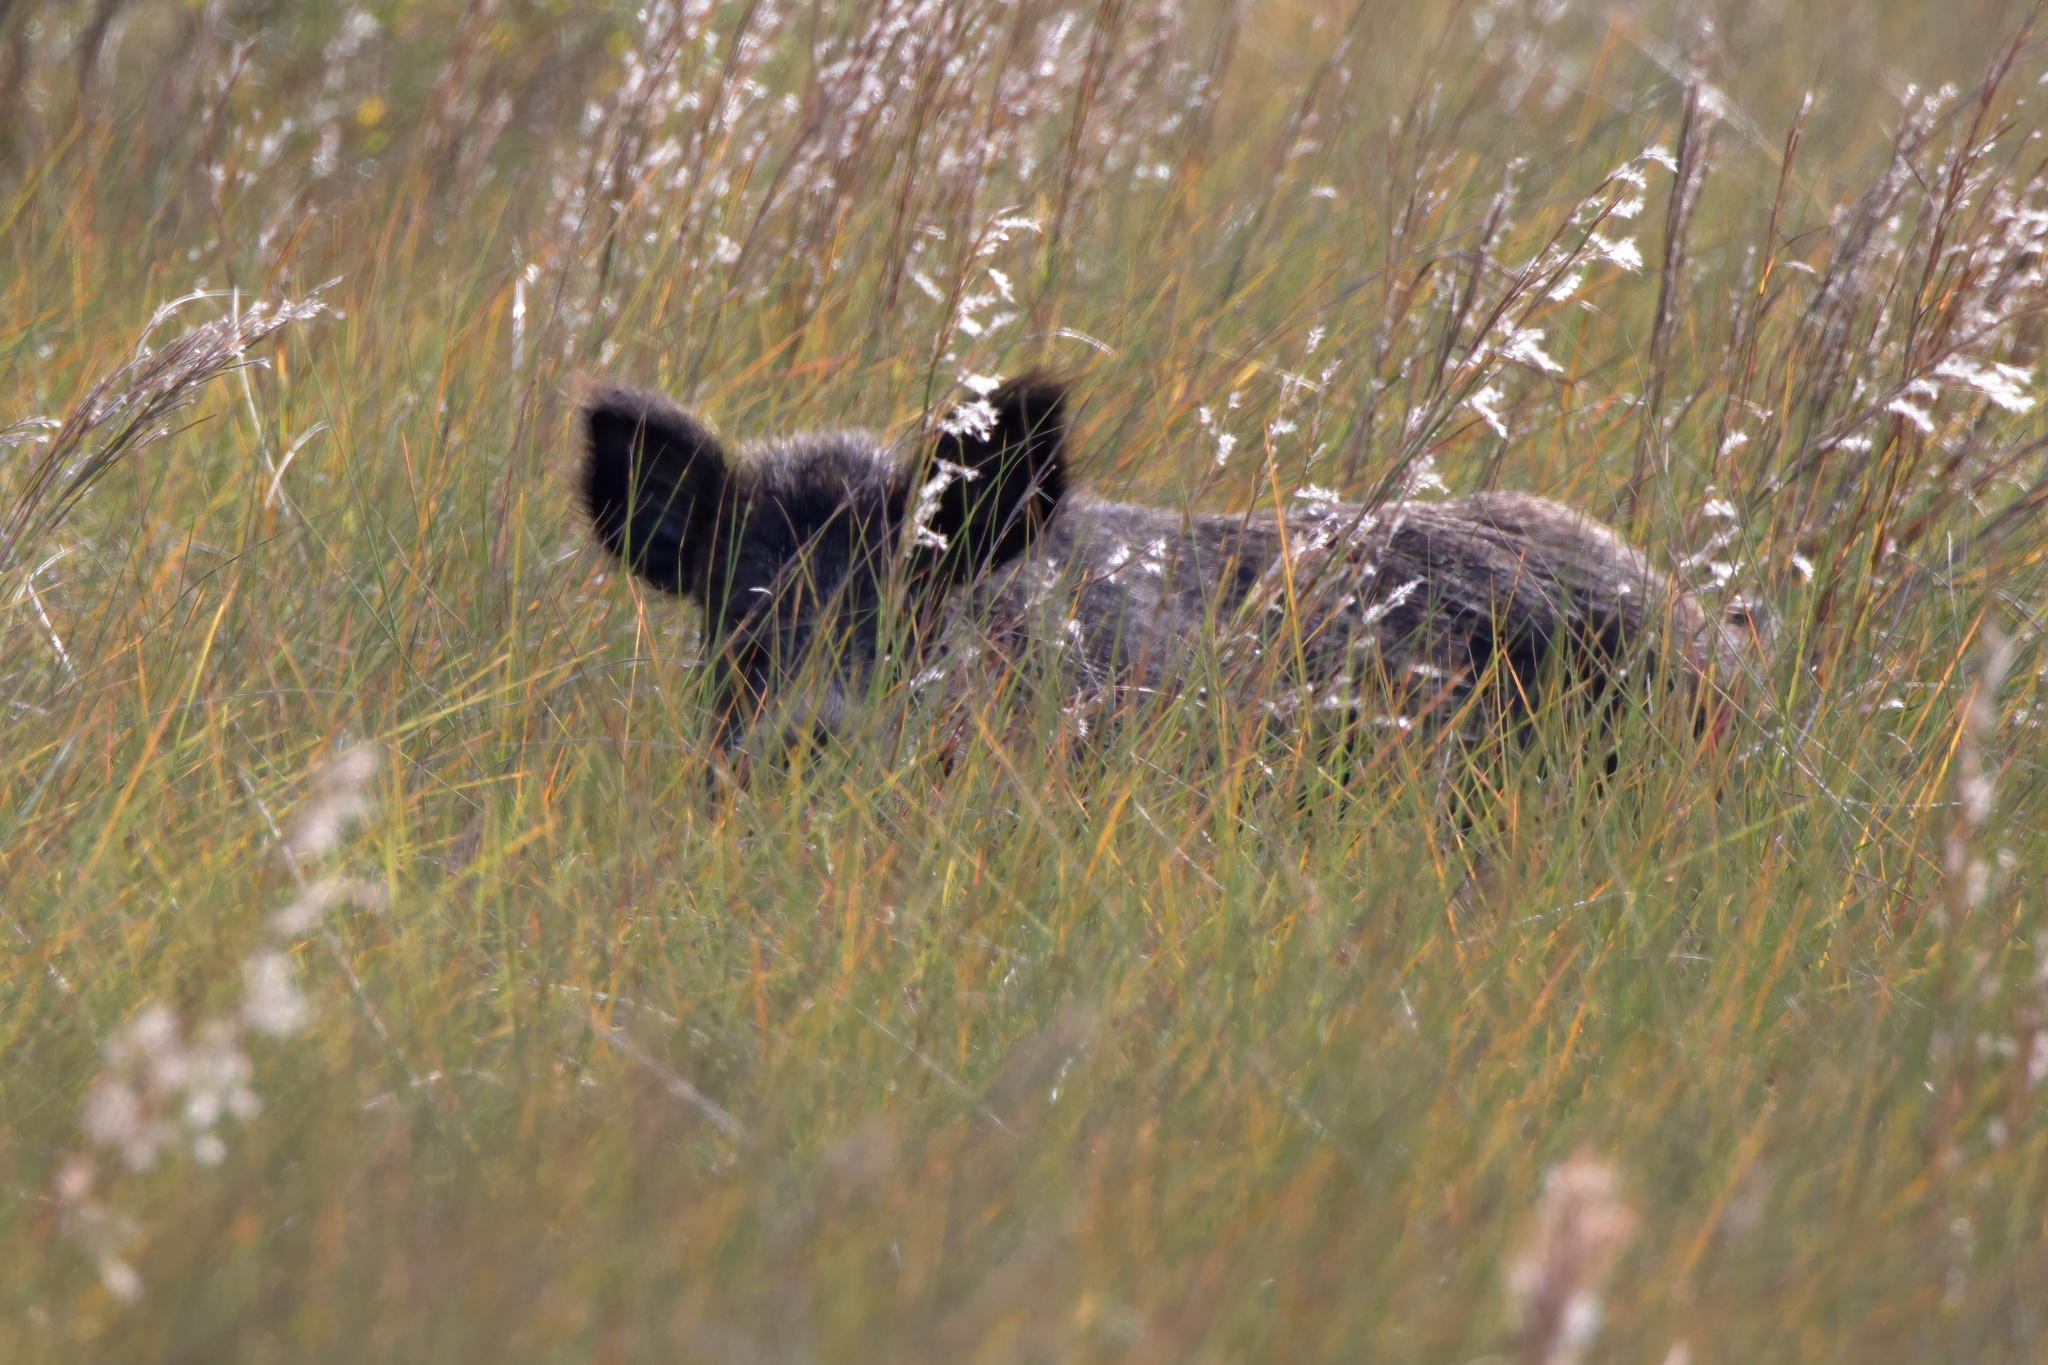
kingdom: Animalia
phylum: Chordata
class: Mammalia
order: Artiodactyla
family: Suidae
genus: Sus
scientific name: Sus scrofa
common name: Wild boar
